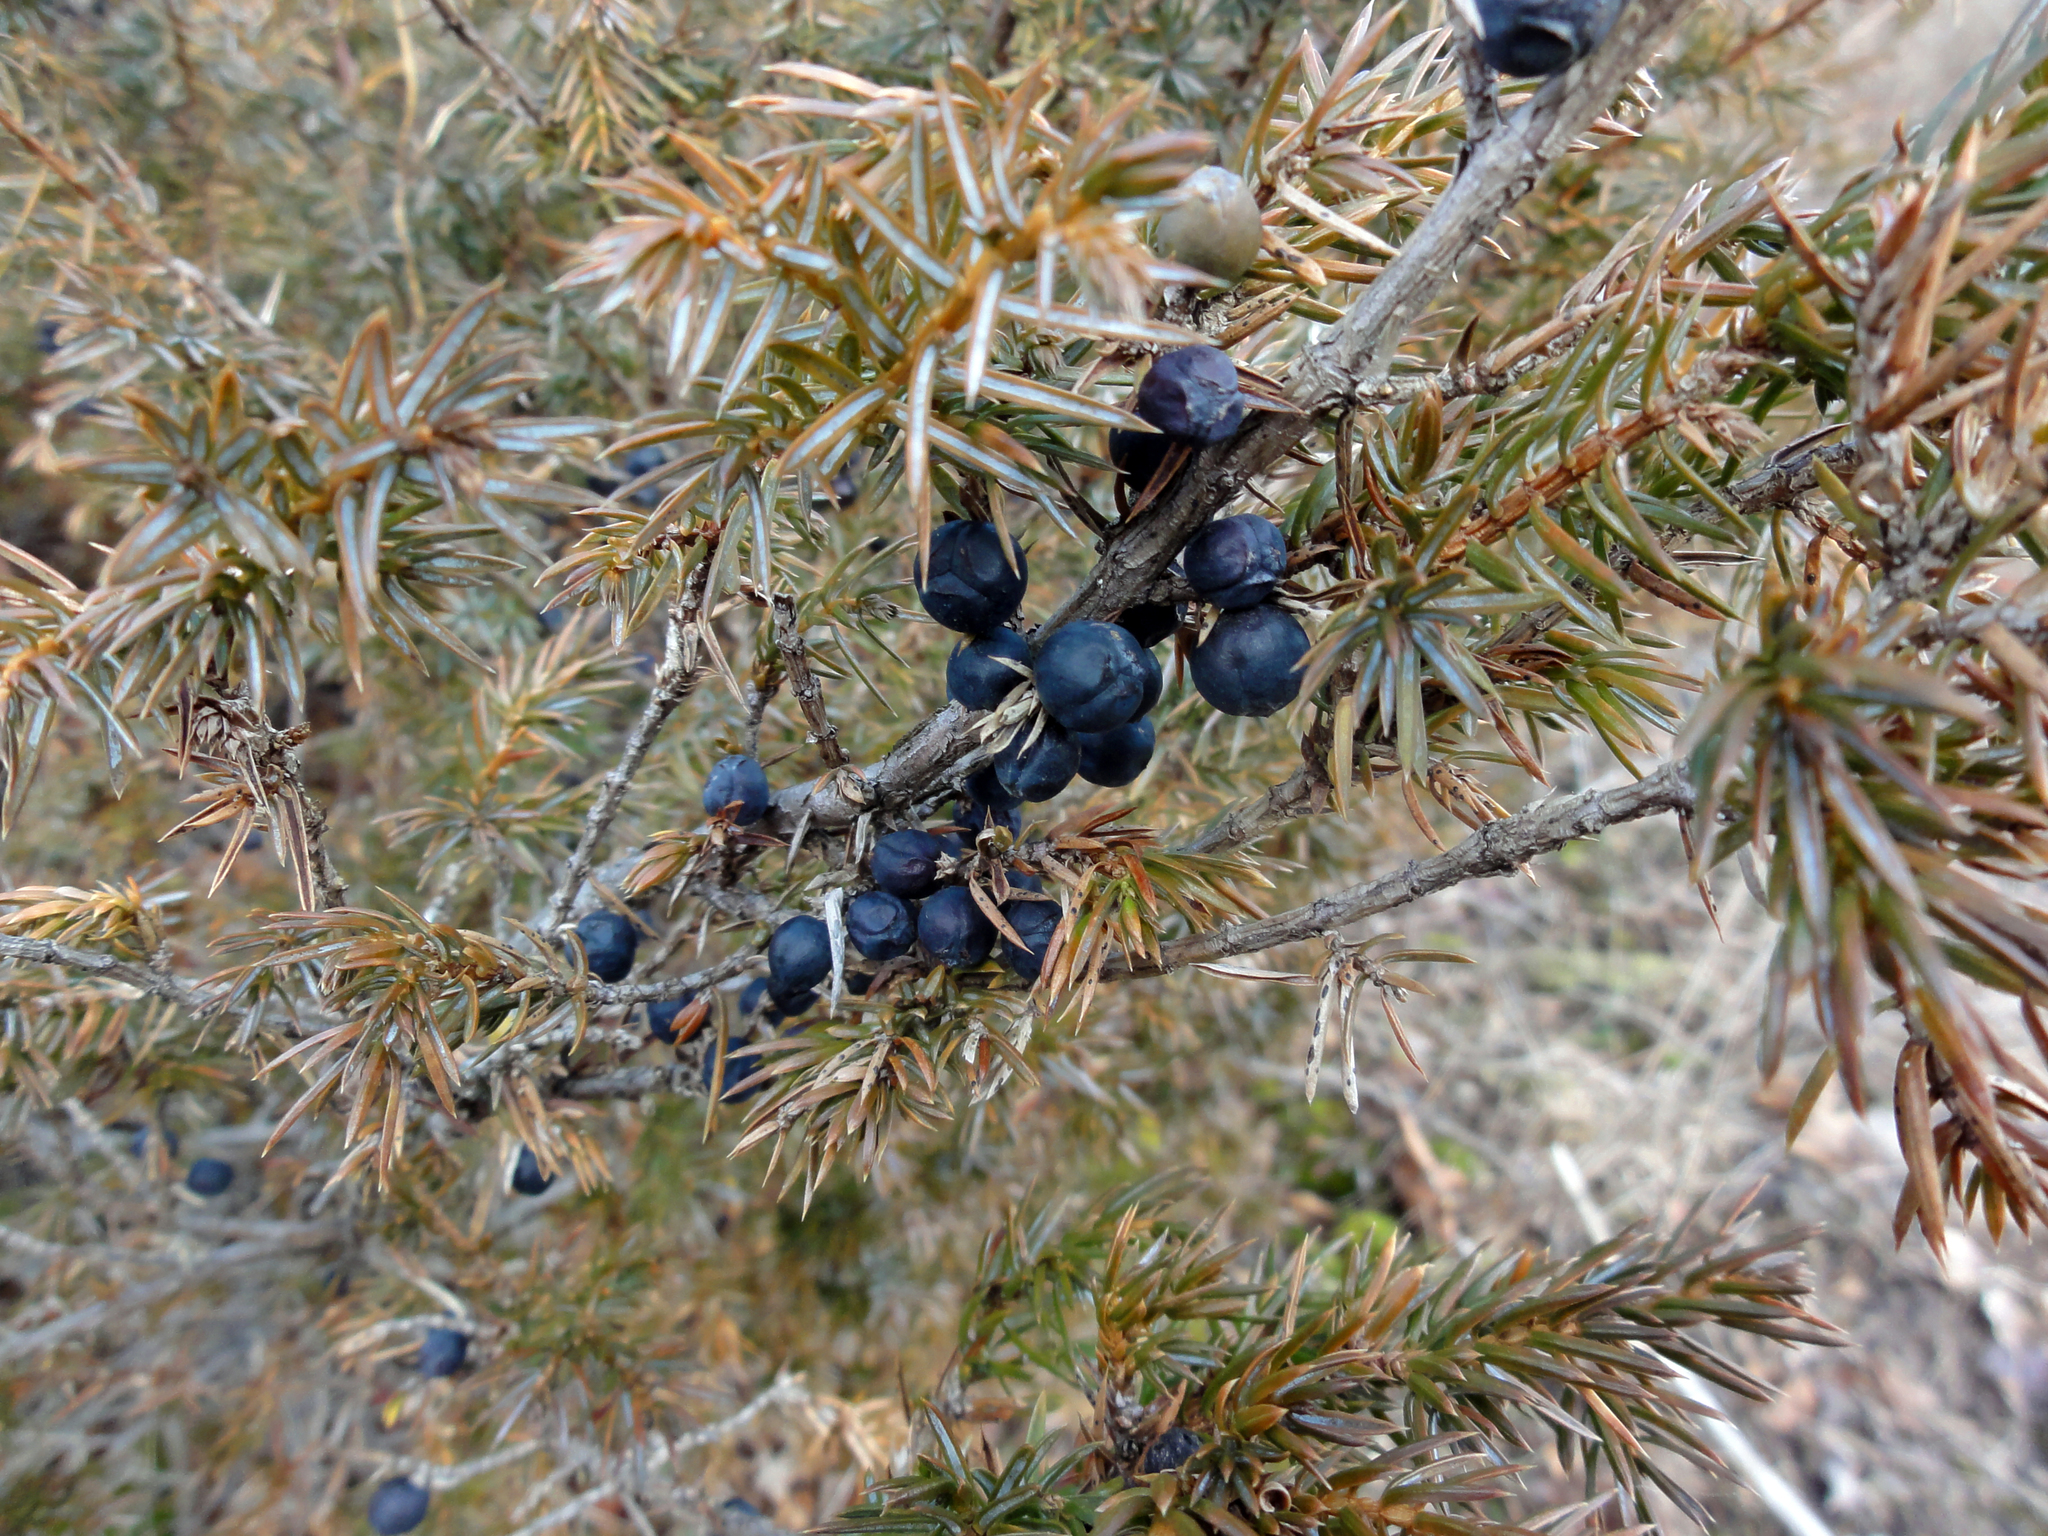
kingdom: Plantae
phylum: Tracheophyta
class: Pinopsida
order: Pinales
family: Cupressaceae
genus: Juniperus
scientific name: Juniperus communis
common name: Common juniper
